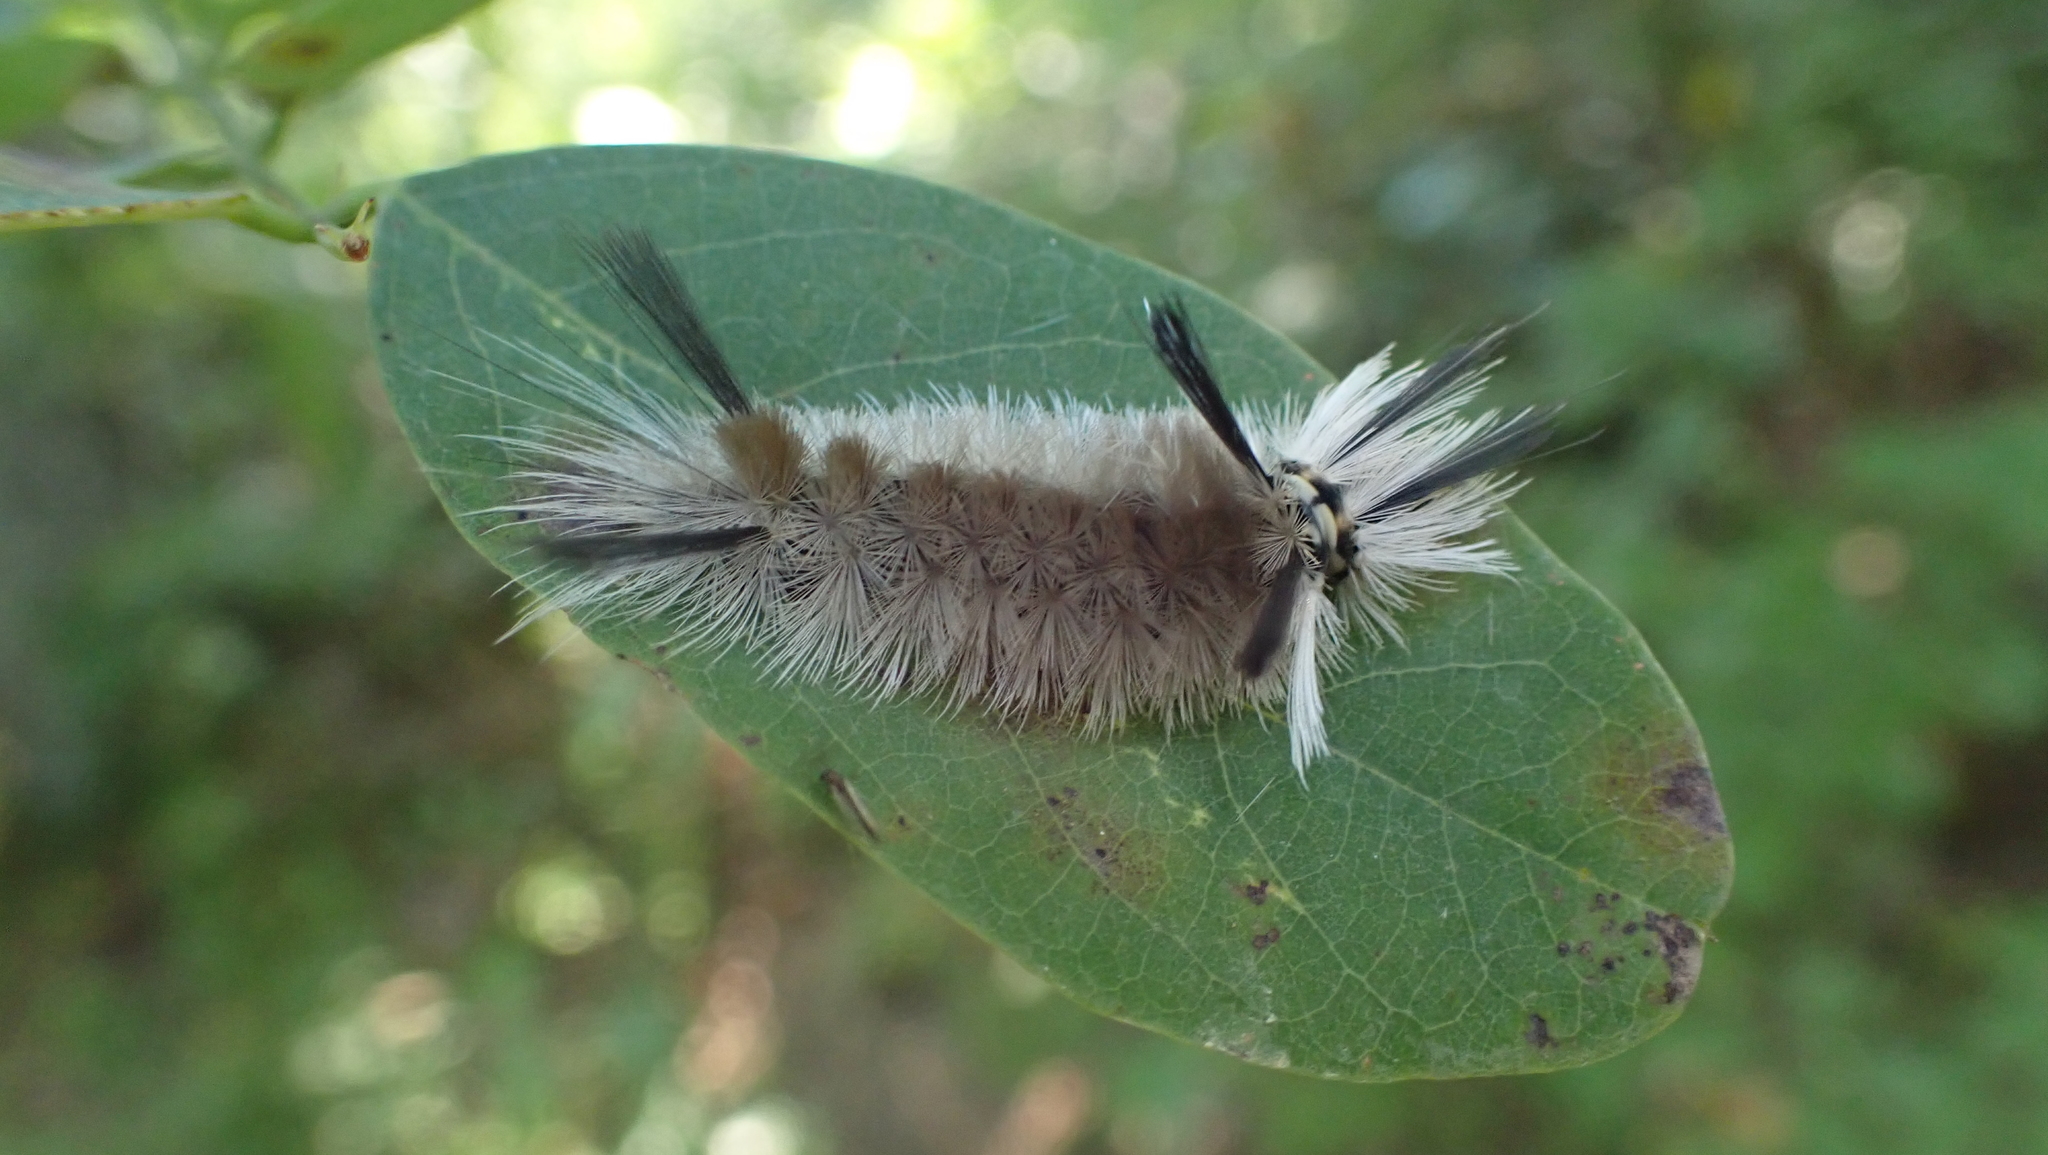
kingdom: Animalia
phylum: Arthropoda
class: Insecta
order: Lepidoptera
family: Erebidae
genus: Halysidota
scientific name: Halysidota tessellaris
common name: Banded tussock moth
